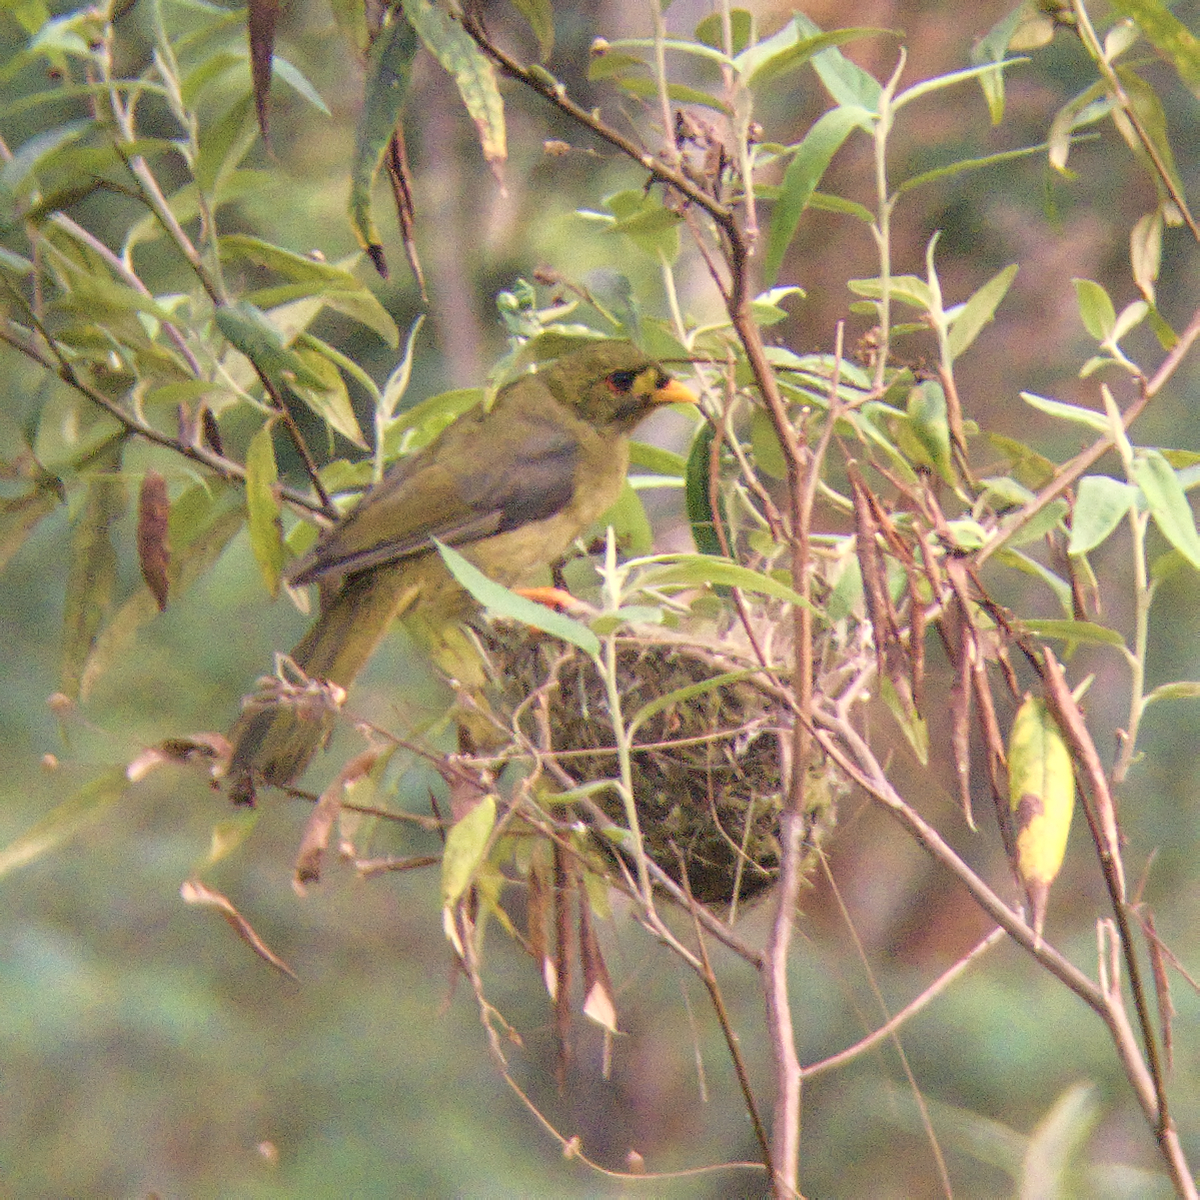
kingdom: Animalia
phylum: Chordata
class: Aves
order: Passeriformes
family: Meliphagidae
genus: Manorina
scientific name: Manorina melanophrys
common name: Bell miner
